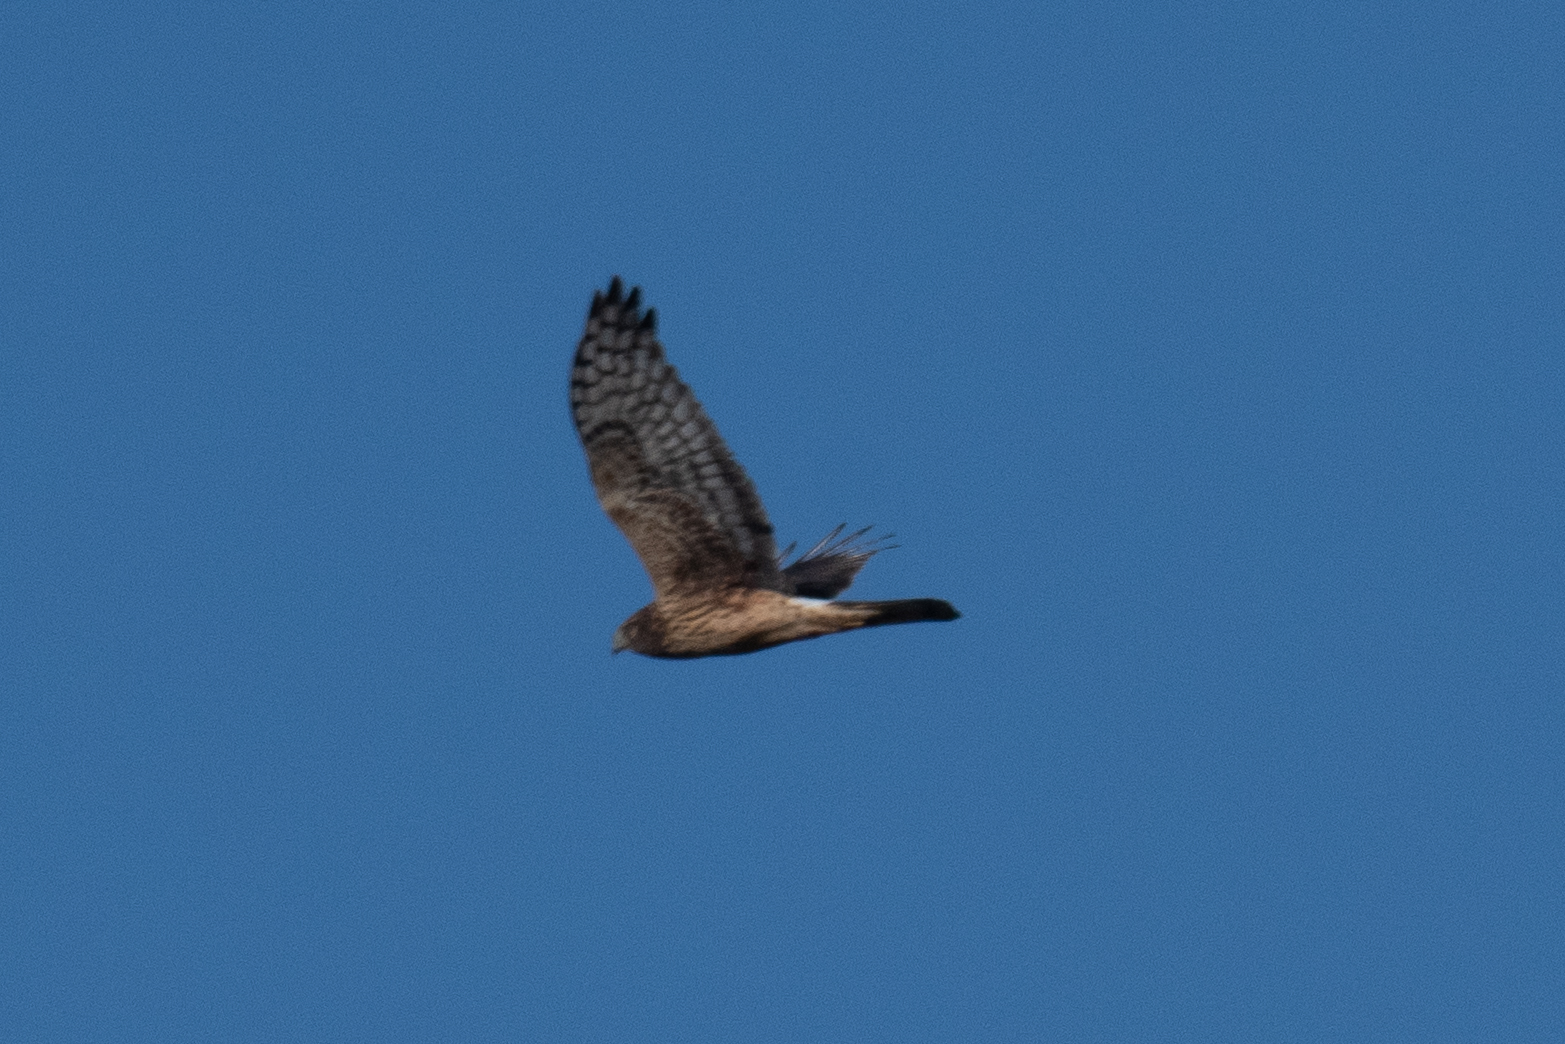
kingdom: Animalia
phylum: Chordata
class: Aves
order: Accipitriformes
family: Accipitridae
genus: Circus
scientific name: Circus cyaneus
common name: Hen harrier
